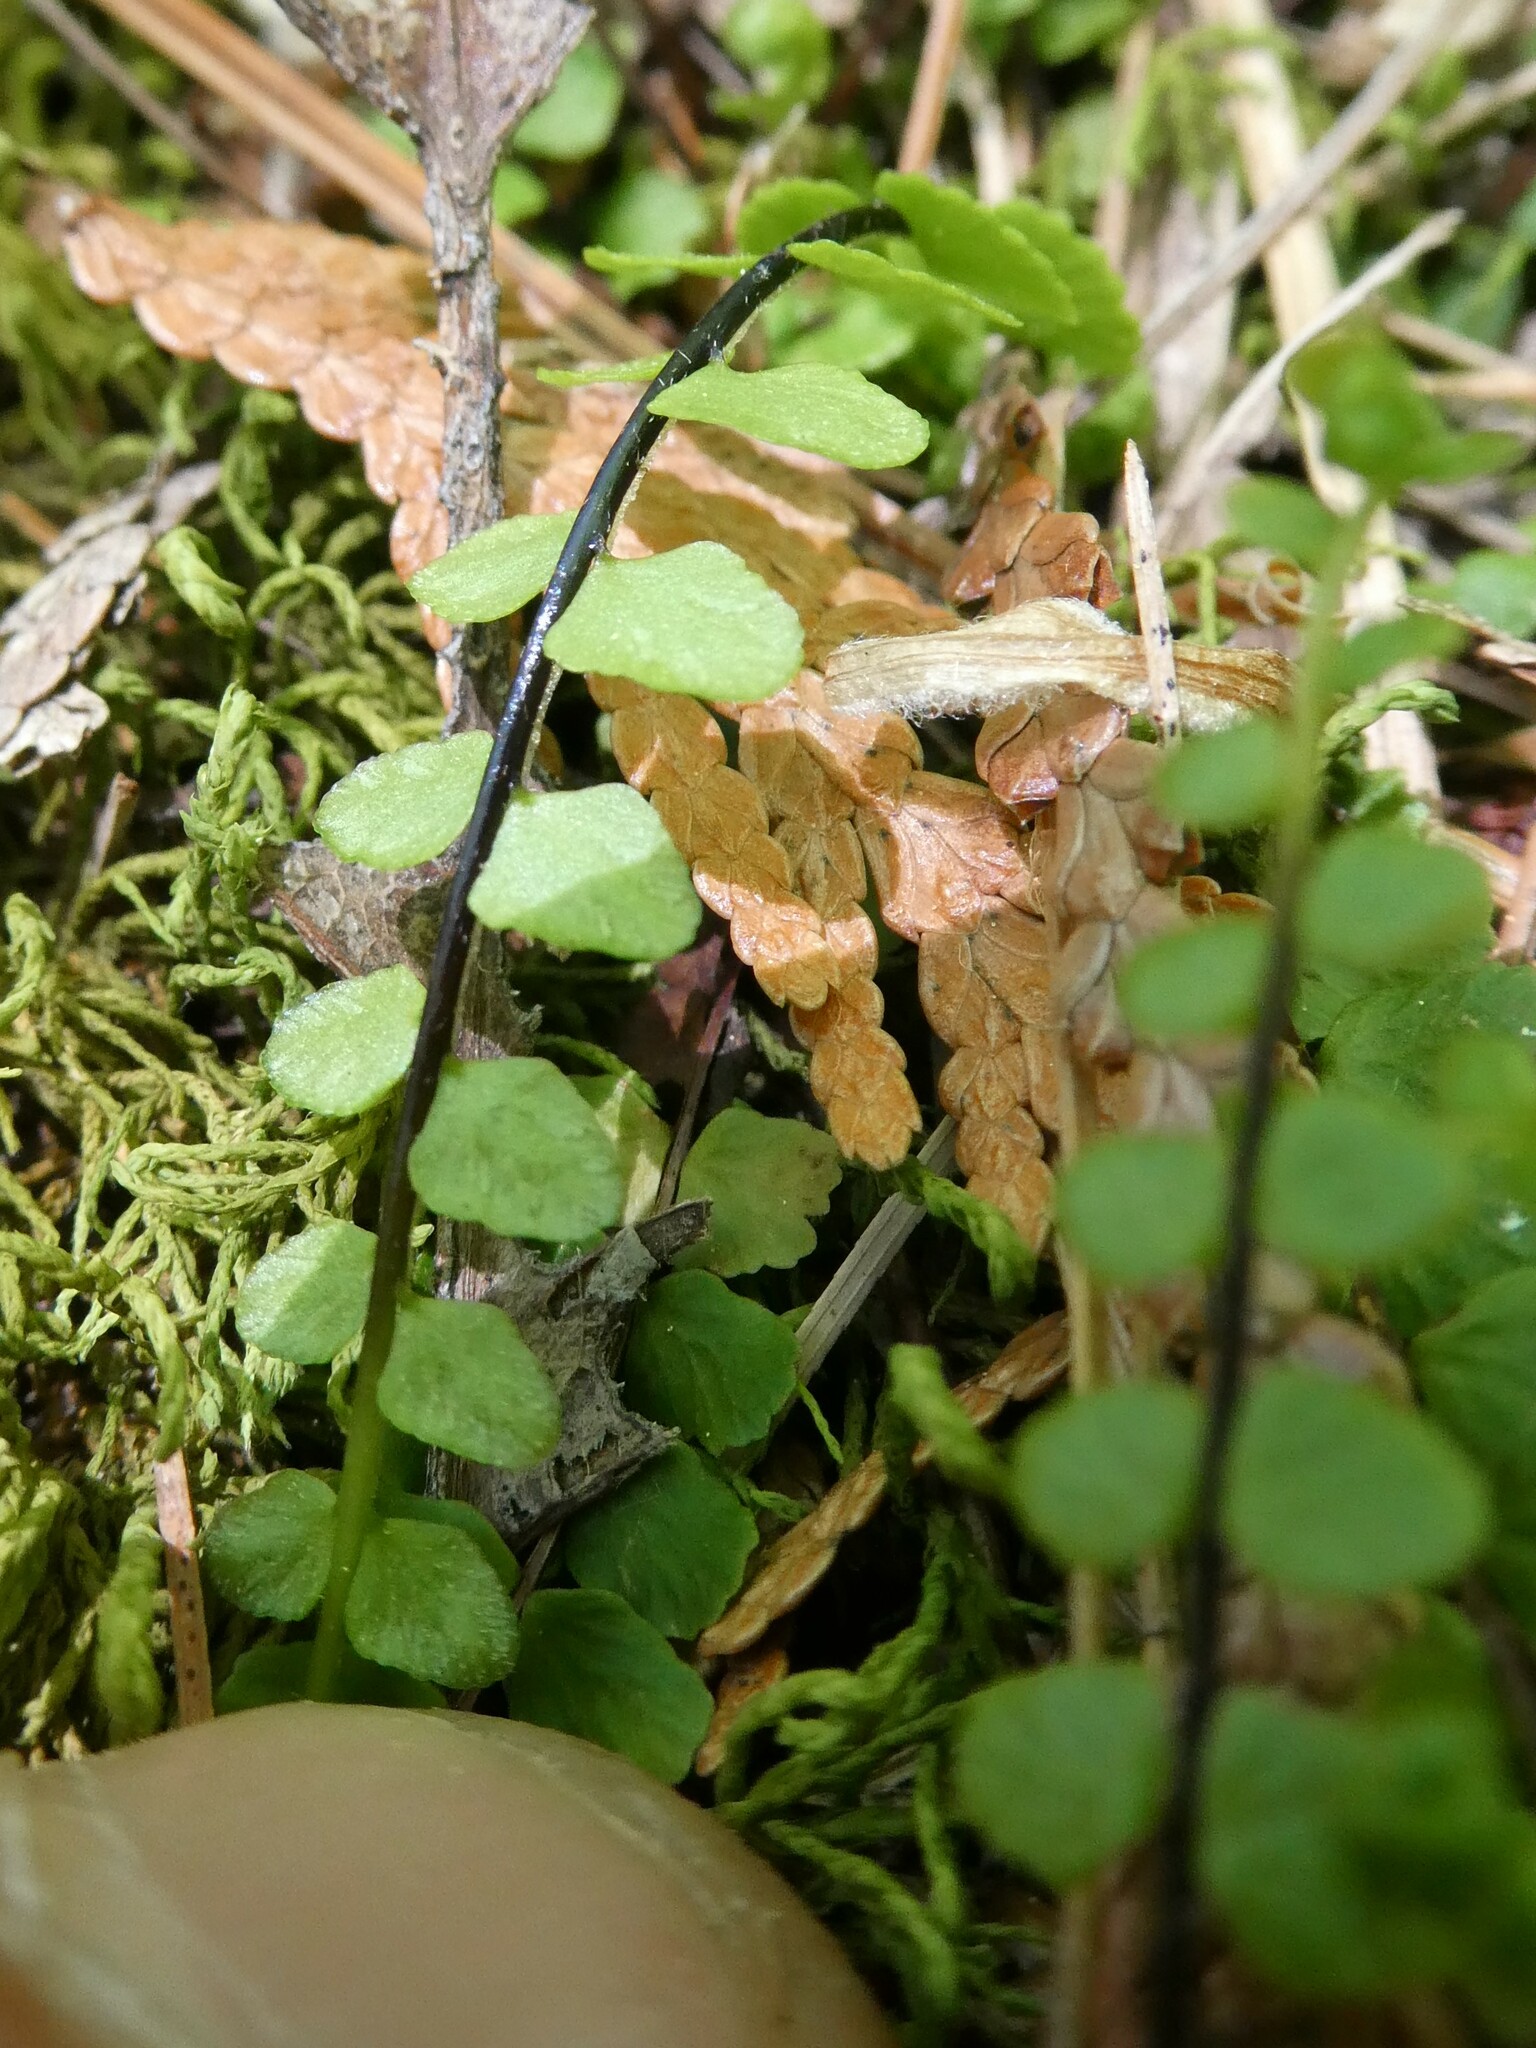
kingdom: Plantae
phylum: Tracheophyta
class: Polypodiopsida
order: Polypodiales
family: Aspleniaceae
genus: Asplenium
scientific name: Asplenium trichomanes
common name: Maidenhair spleenwort
